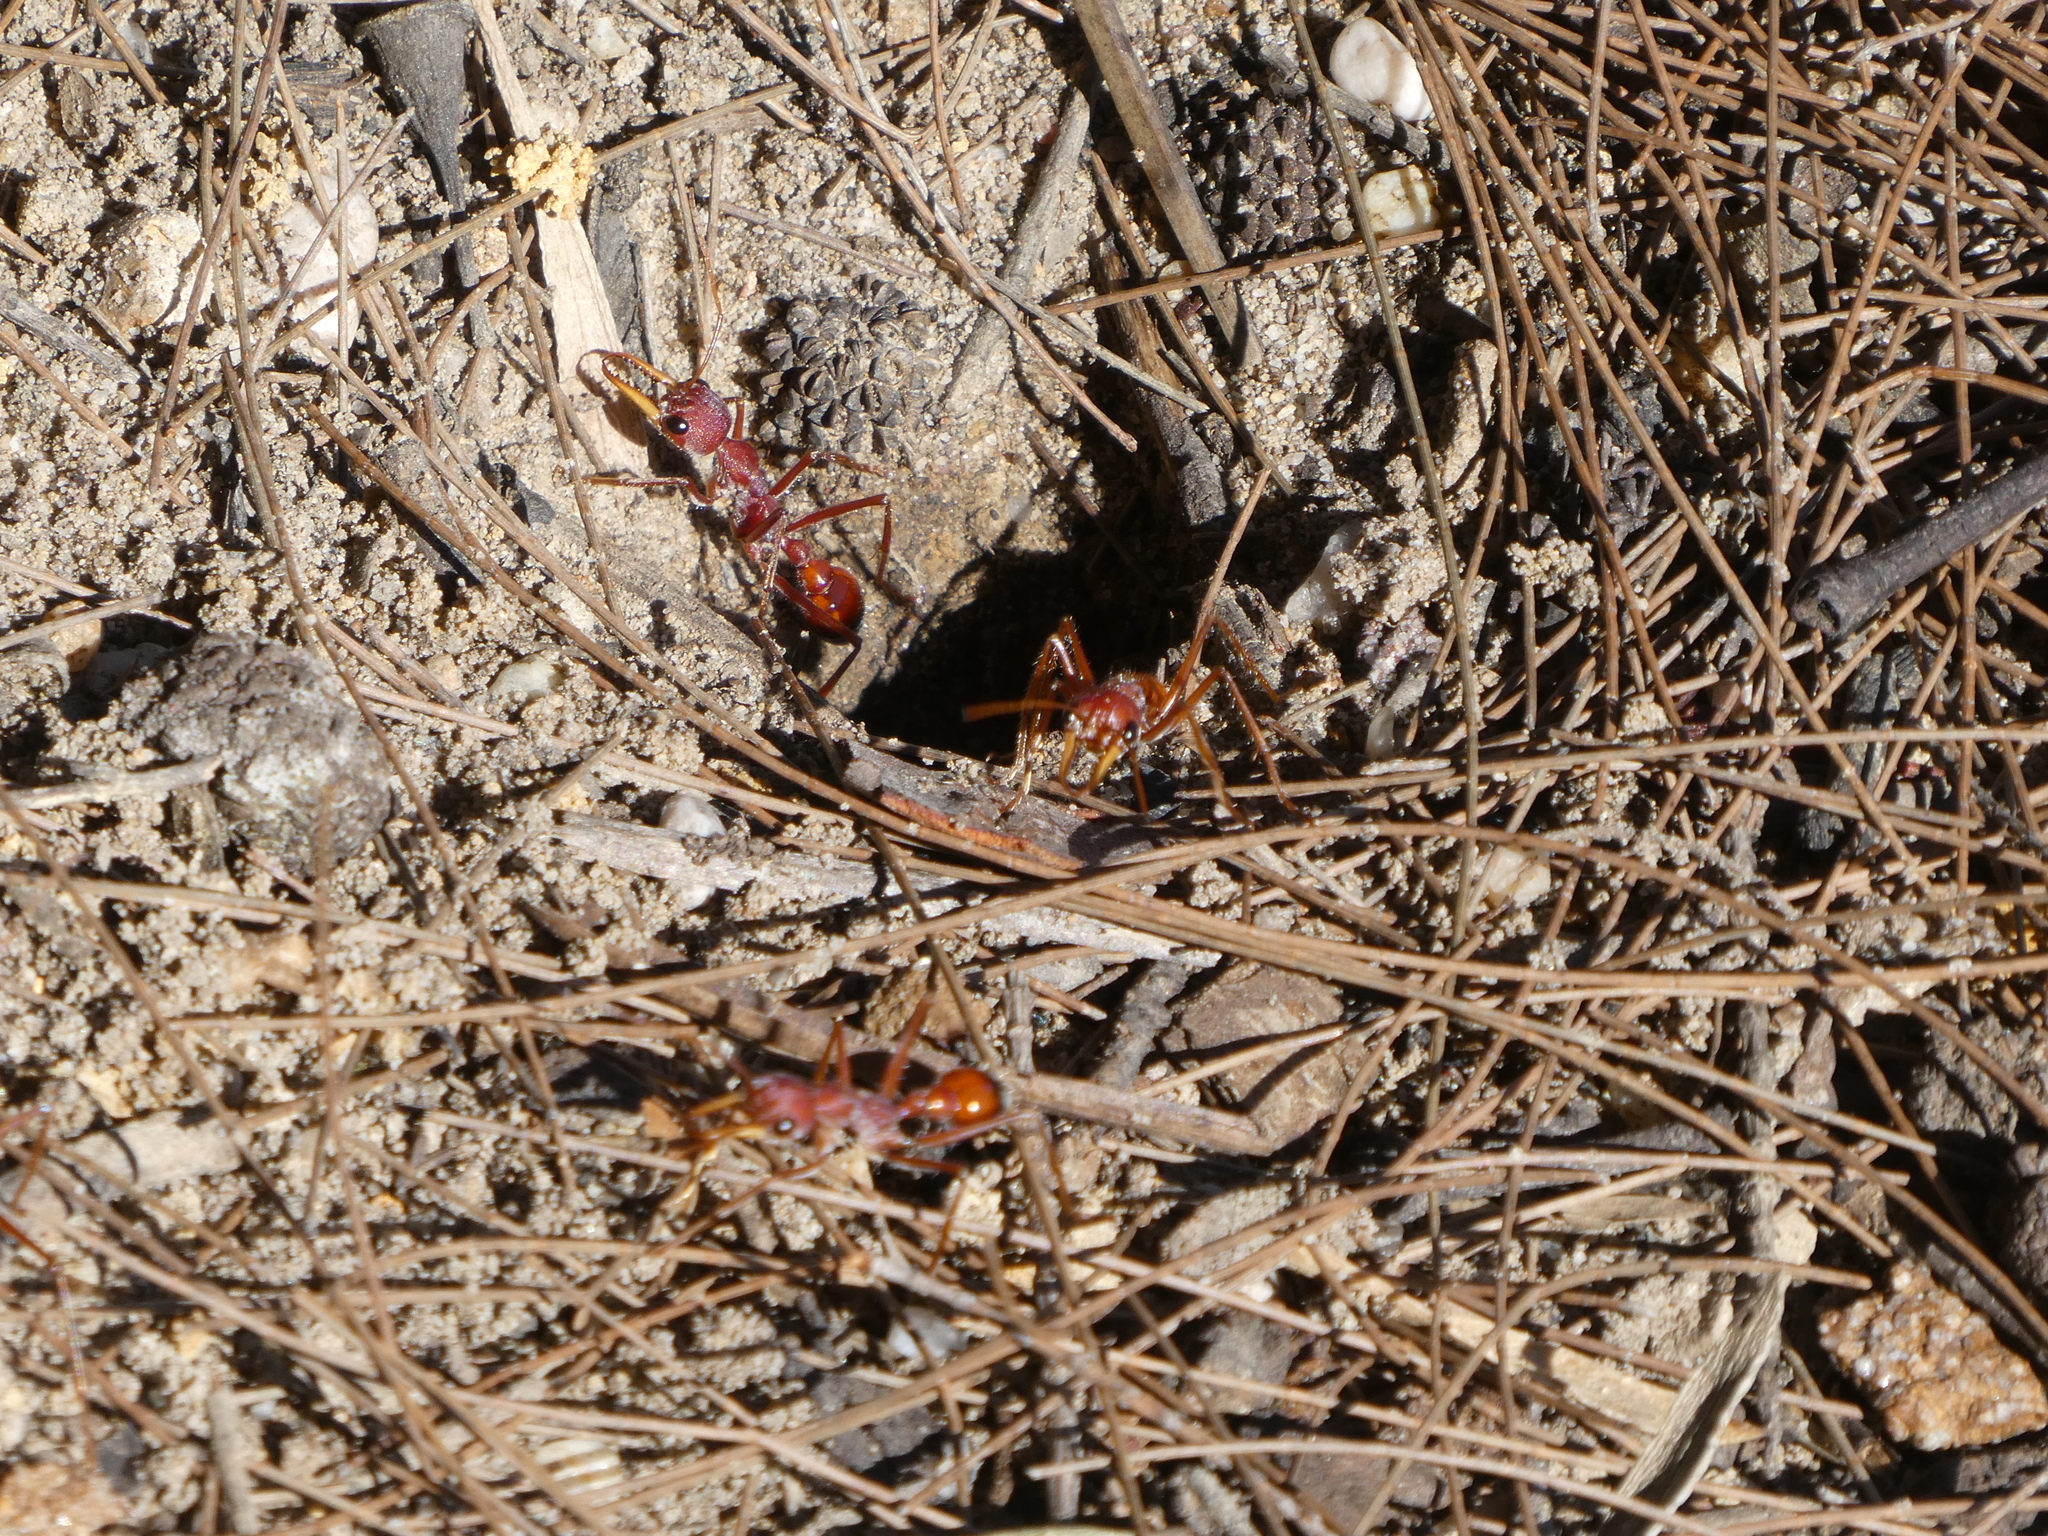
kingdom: Animalia
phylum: Arthropoda
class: Insecta
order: Hymenoptera
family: Formicidae
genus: Myrmecia
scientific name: Myrmecia gulosa
